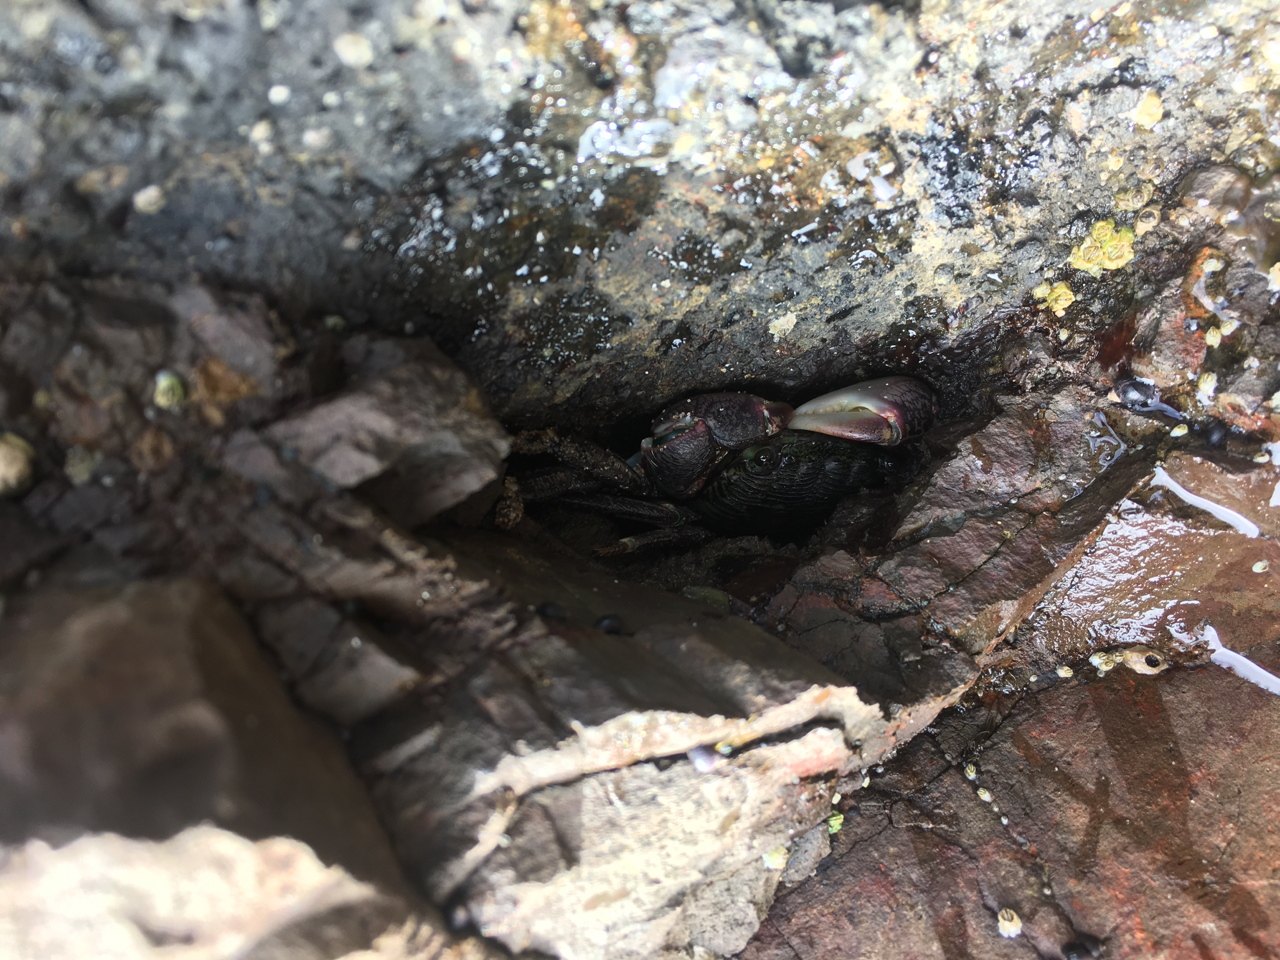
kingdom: Animalia
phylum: Arthropoda
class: Malacostraca
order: Decapoda
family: Grapsidae
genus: Pachygrapsus
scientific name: Pachygrapsus crassipes
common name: Striped shore crab
